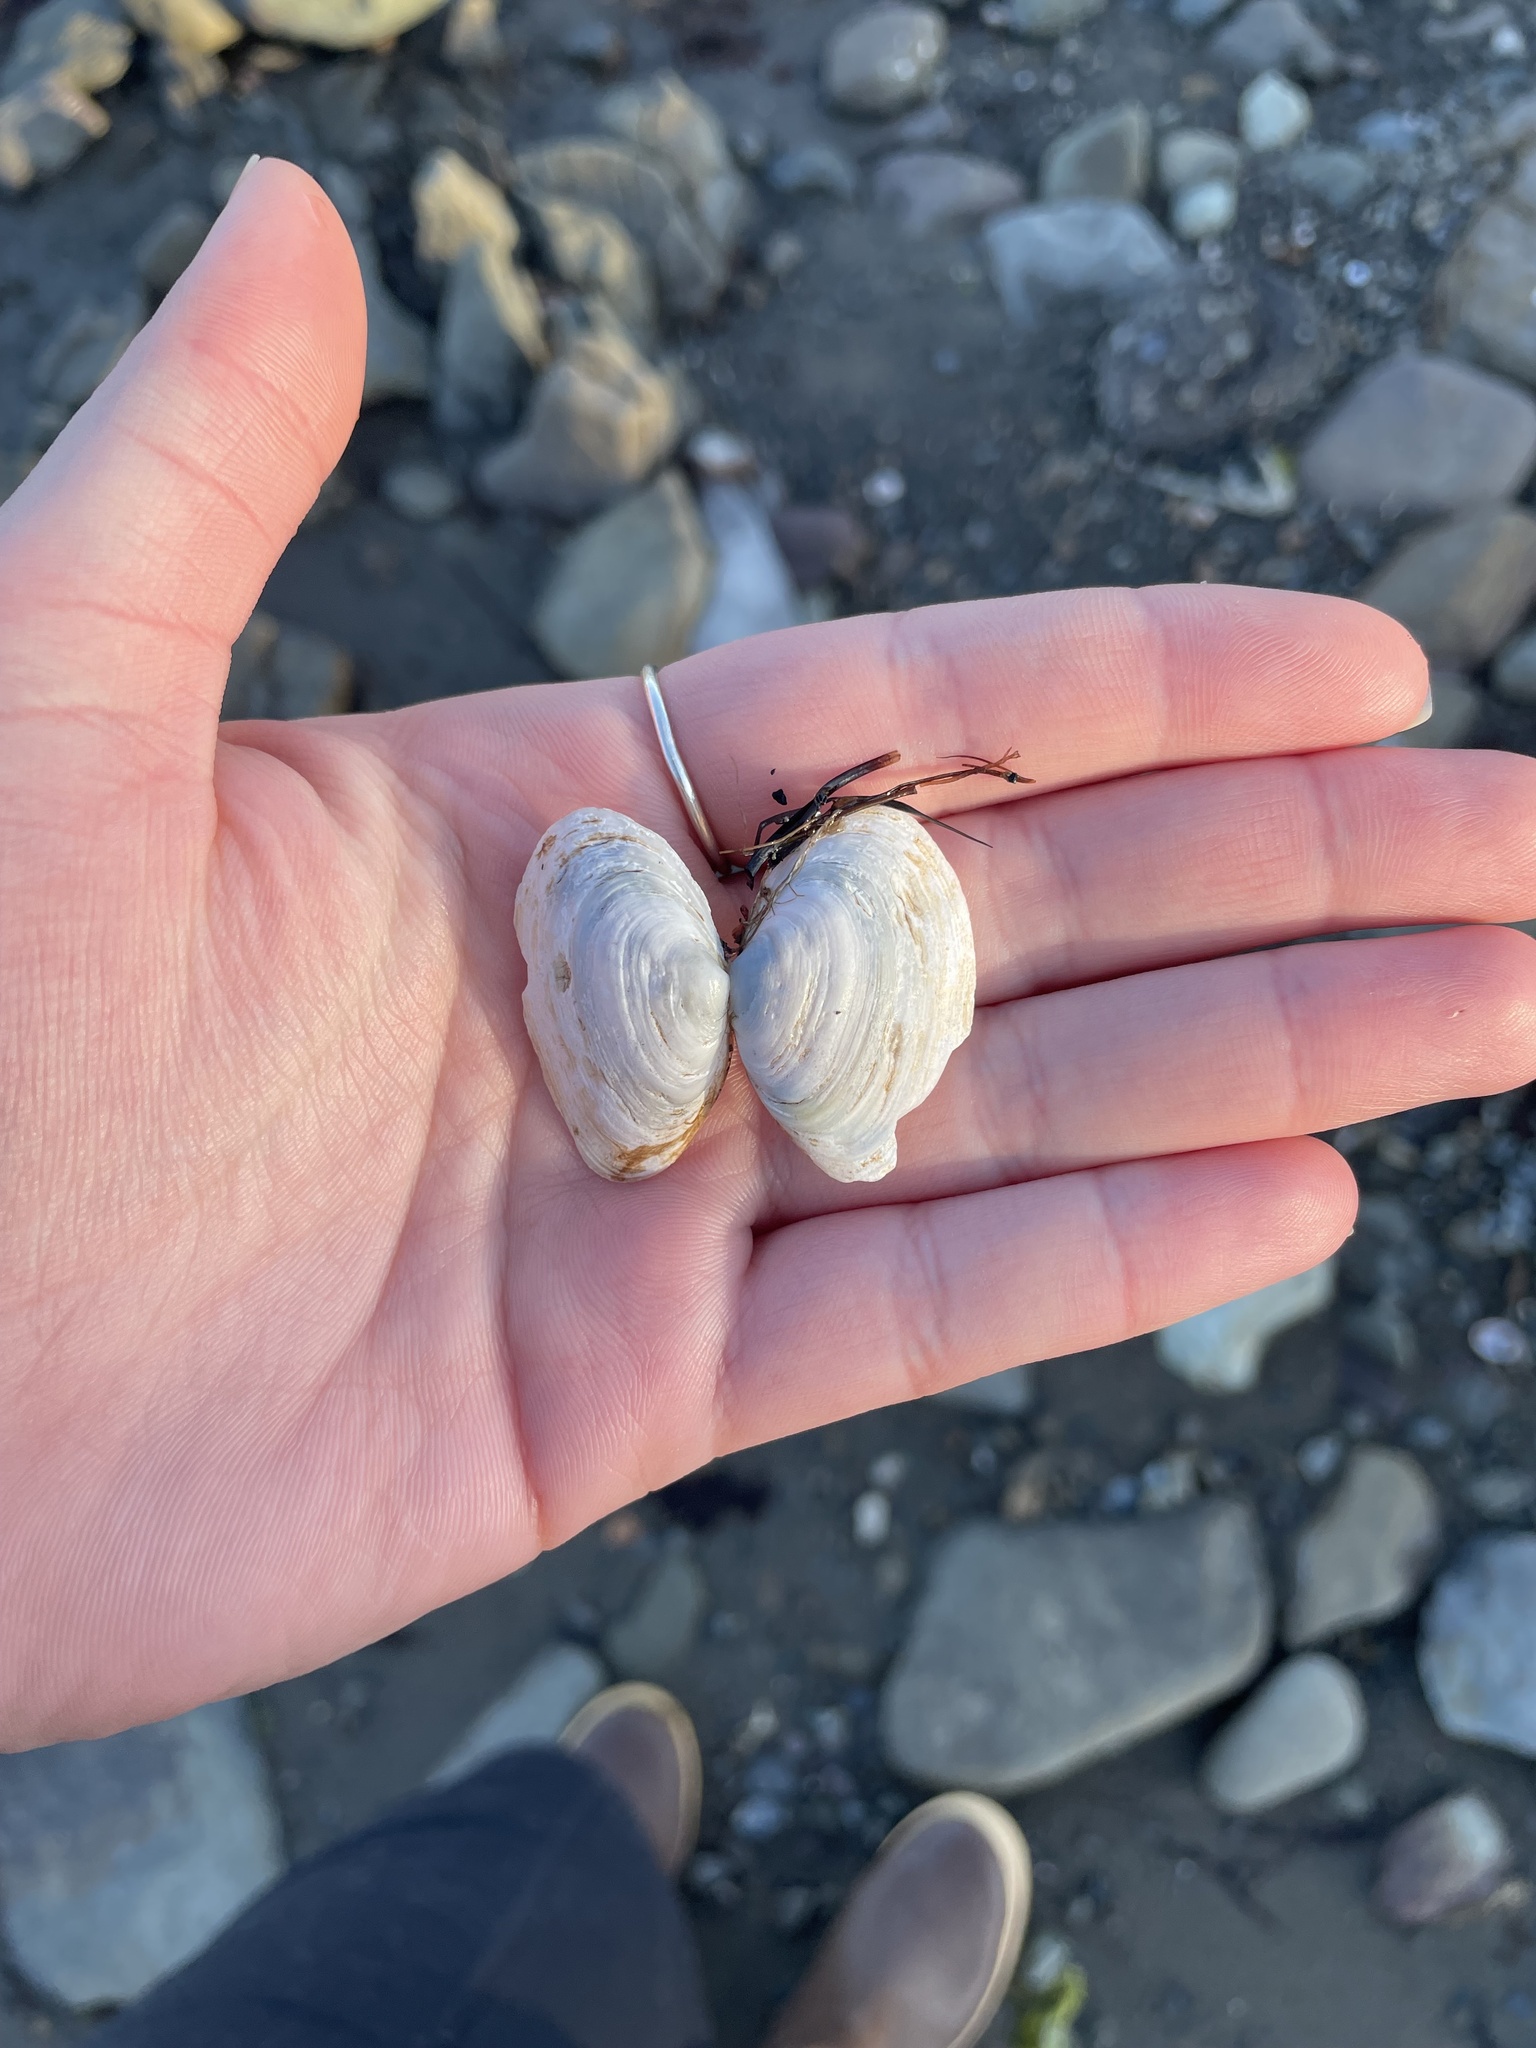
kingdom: Animalia
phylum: Mollusca
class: Bivalvia
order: Myida
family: Myidae
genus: Mya
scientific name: Mya arenaria
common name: Soft-shelled clam
